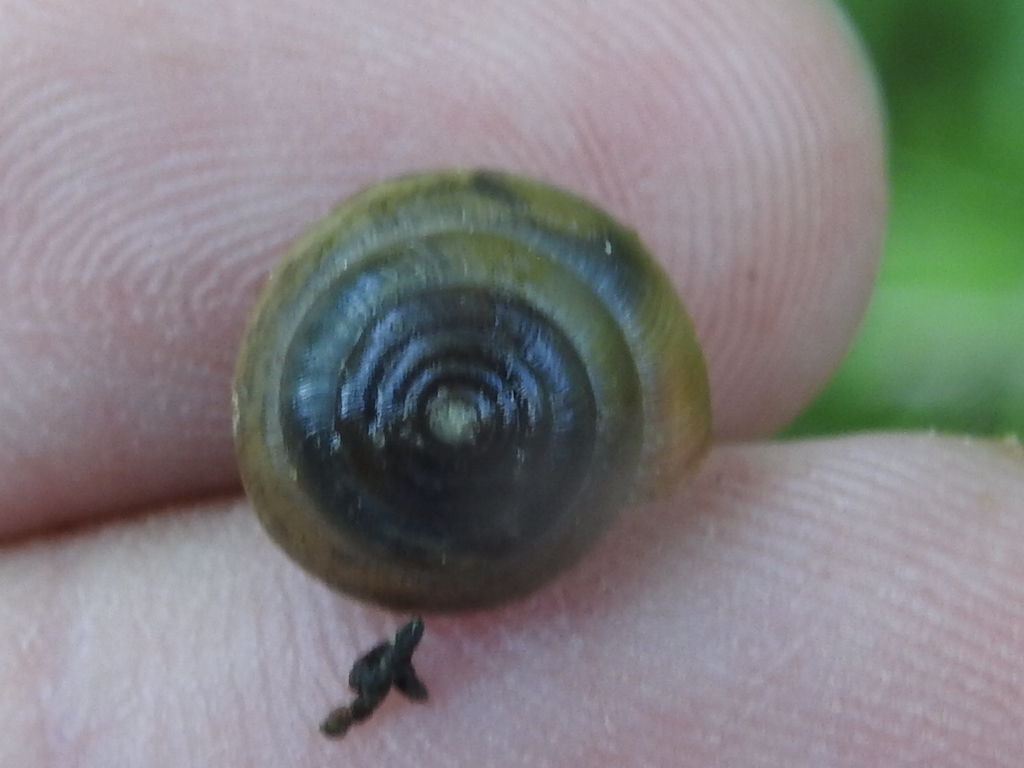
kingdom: Animalia
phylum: Mollusca
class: Gastropoda
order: Stylommatophora
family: Camaenidae
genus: Bradybaena
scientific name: Bradybaena similaris
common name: Asian trampsnail
